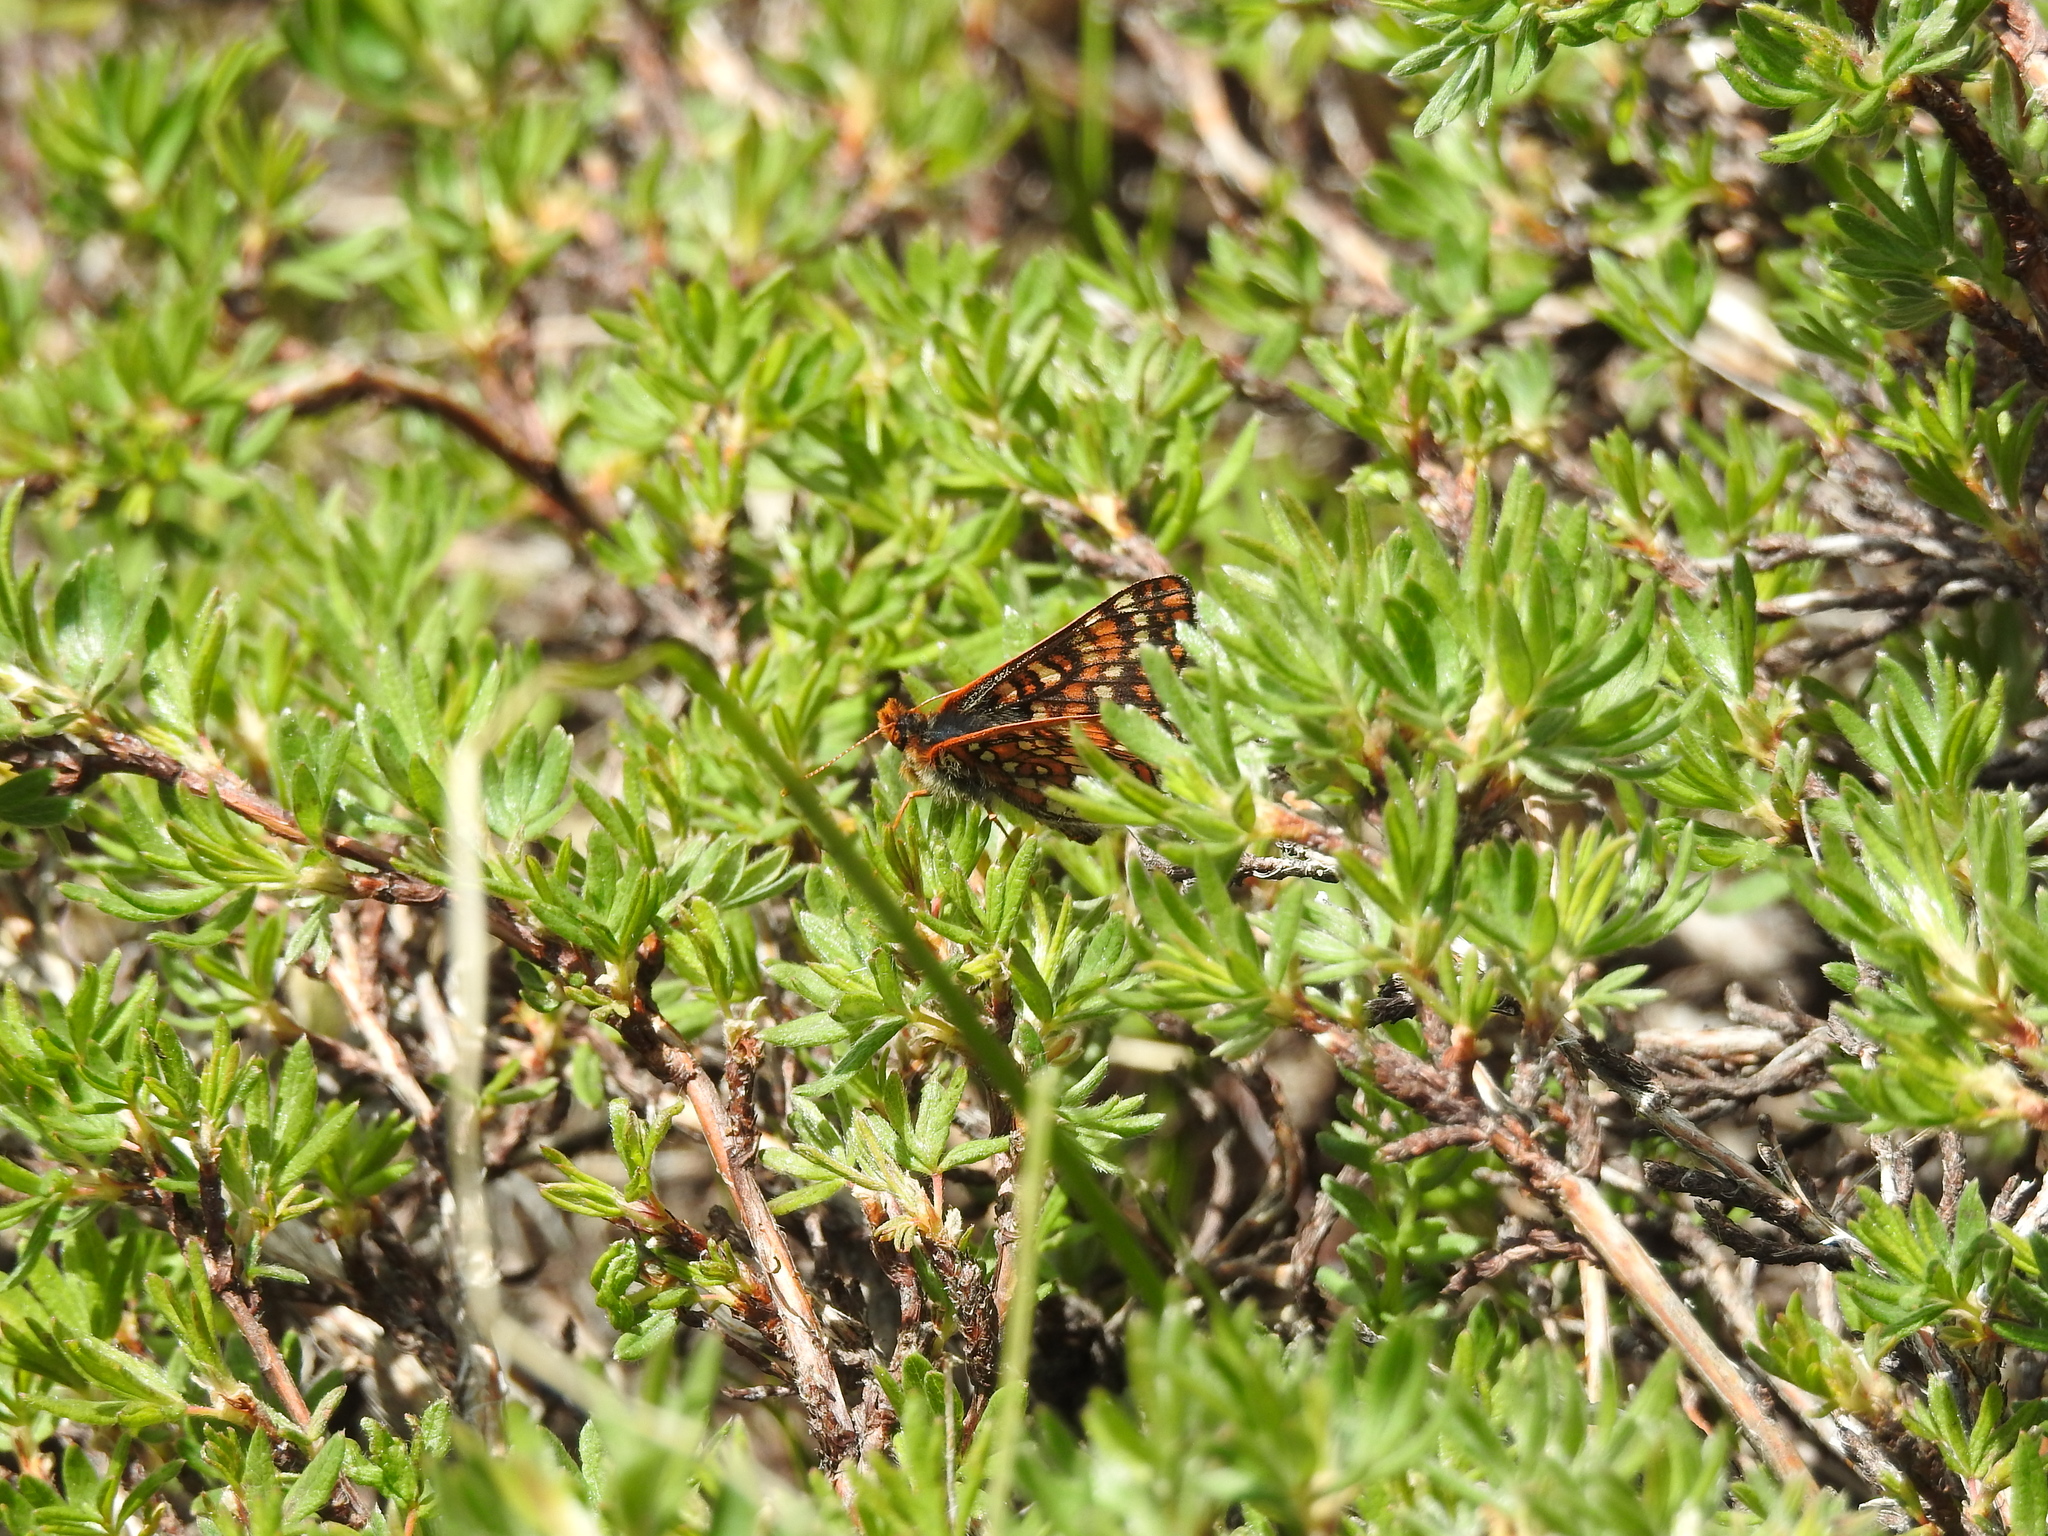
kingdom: Animalia
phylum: Arthropoda
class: Insecta
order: Lepidoptera
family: Nymphalidae
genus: Occidryas
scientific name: Occidryas anicia
